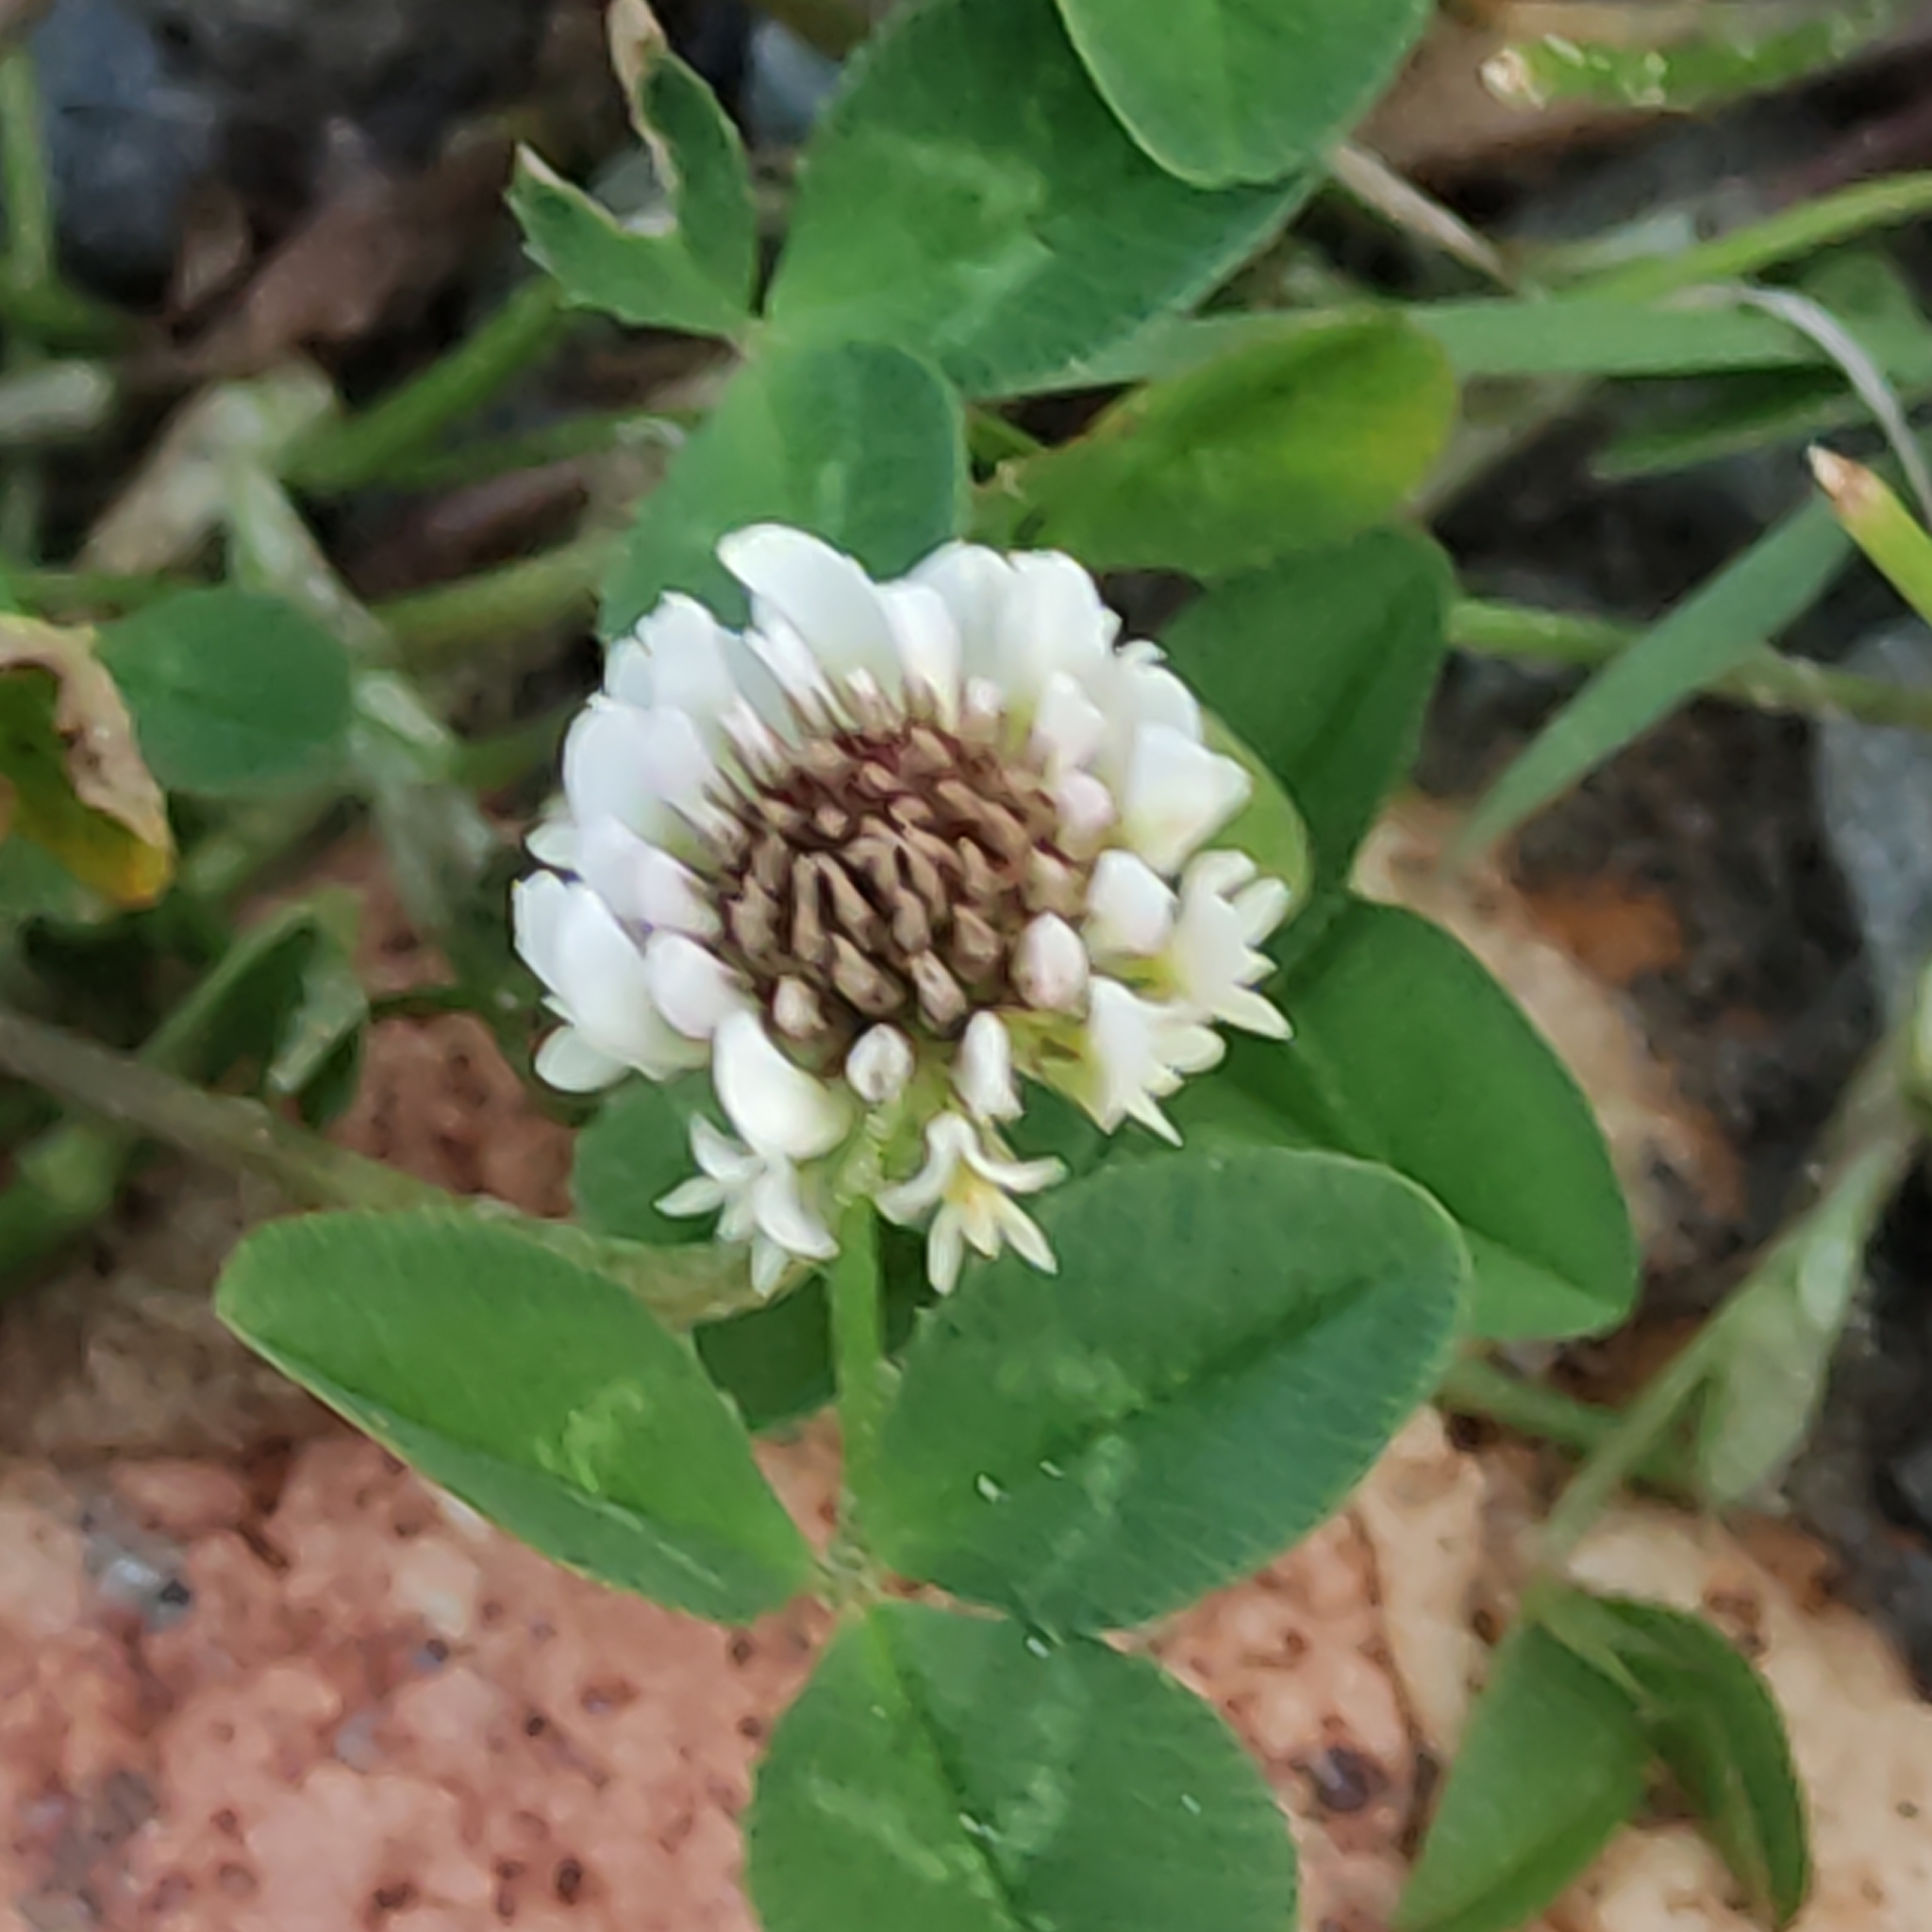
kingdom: Plantae
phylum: Tracheophyta
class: Magnoliopsida
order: Fabales
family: Fabaceae
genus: Trifolium
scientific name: Trifolium repens
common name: White clover
